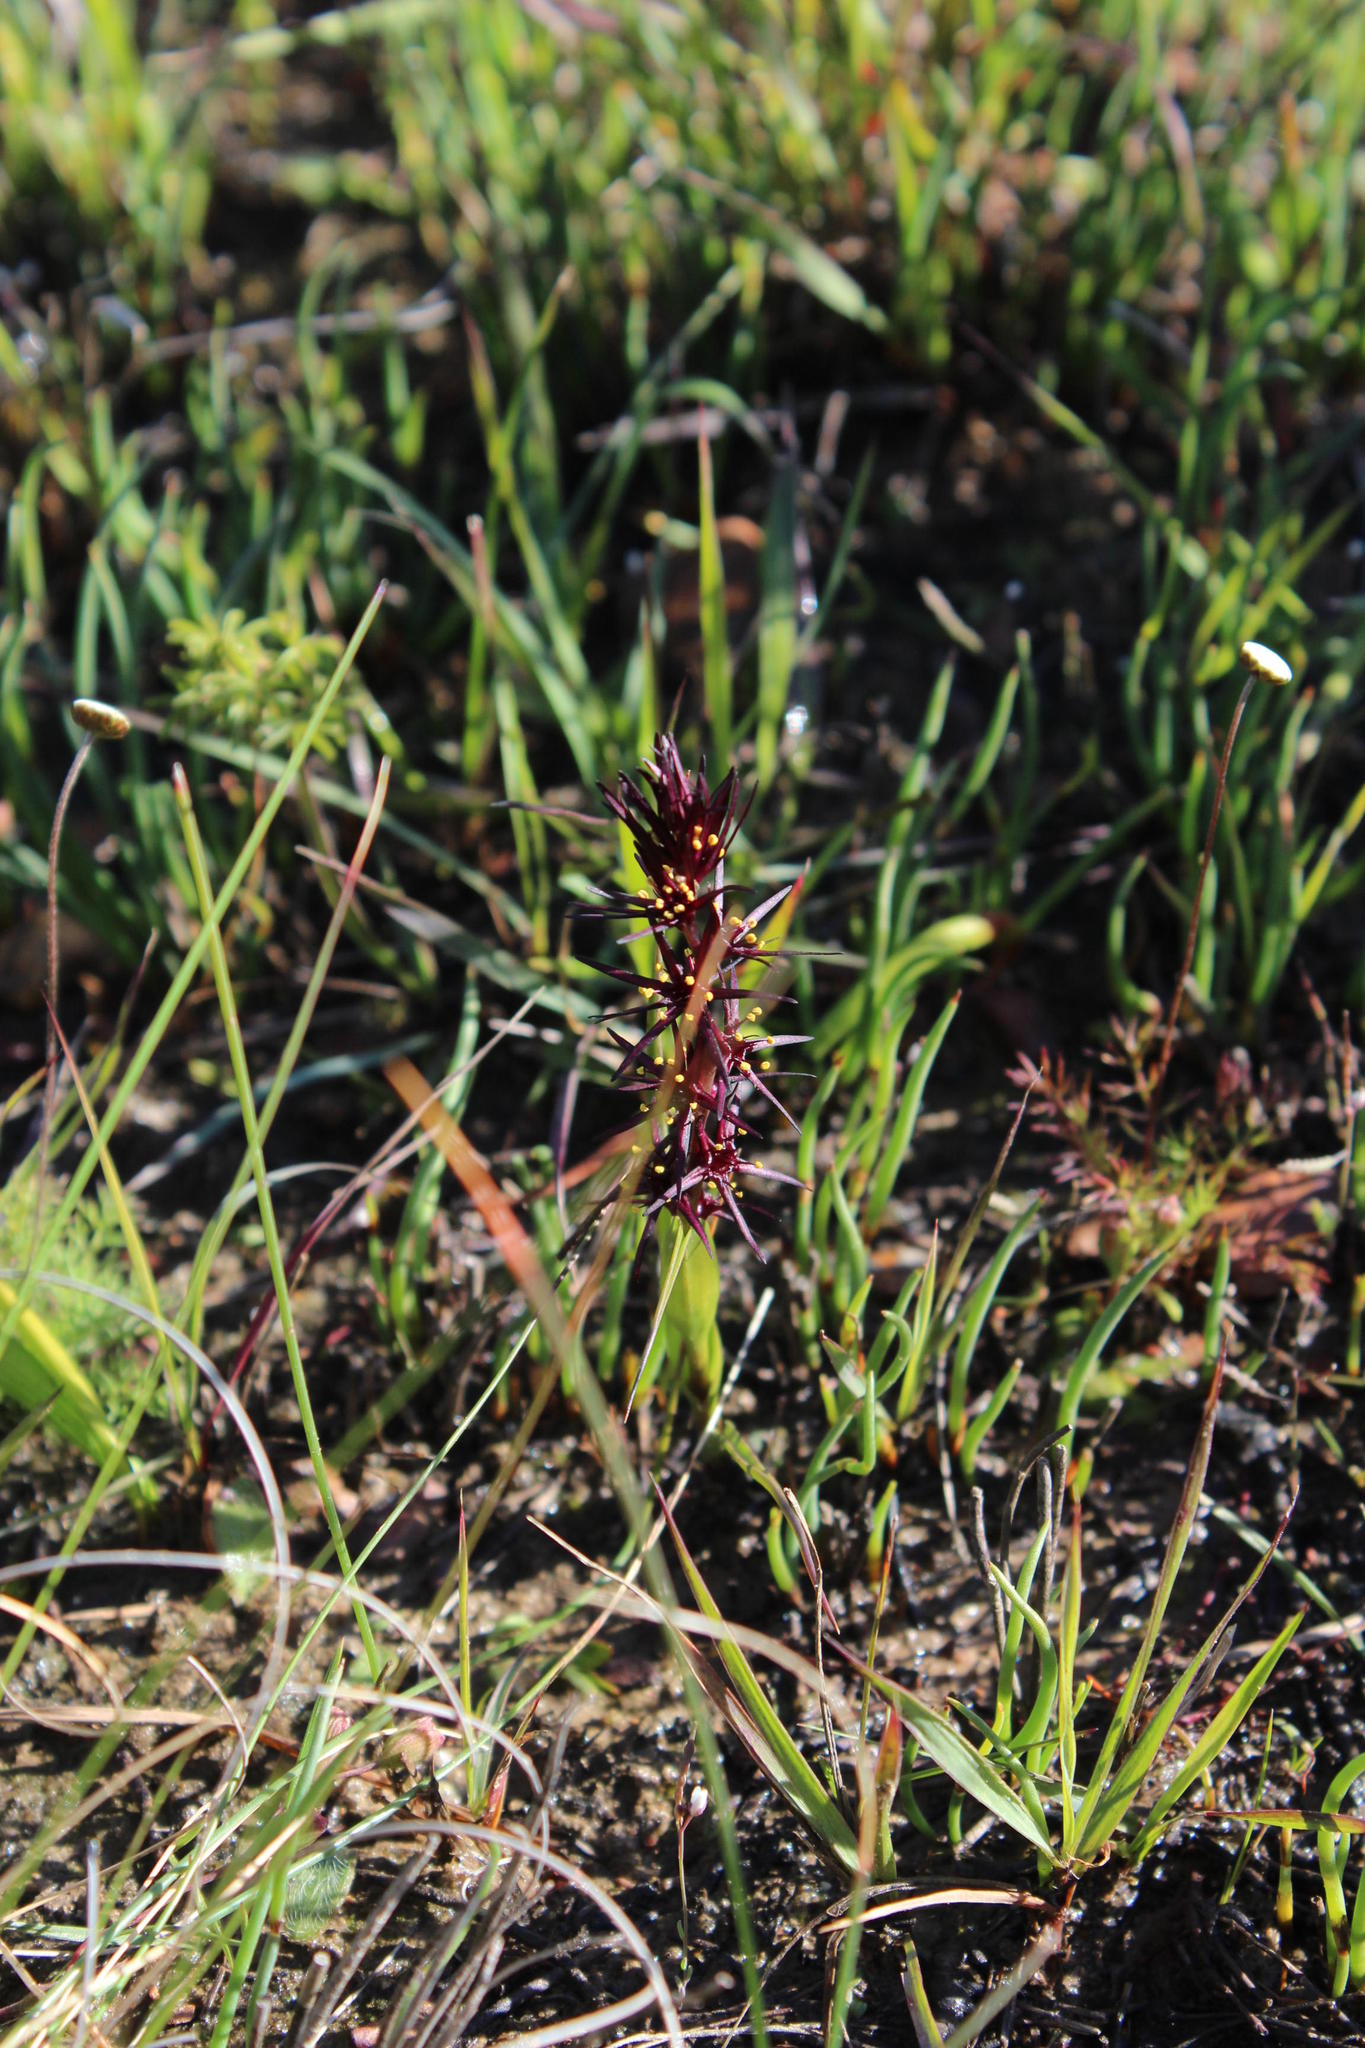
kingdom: Plantae
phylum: Tracheophyta
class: Liliopsida
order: Liliales
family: Colchicaceae
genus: Wurmbea
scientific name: Wurmbea marginata
